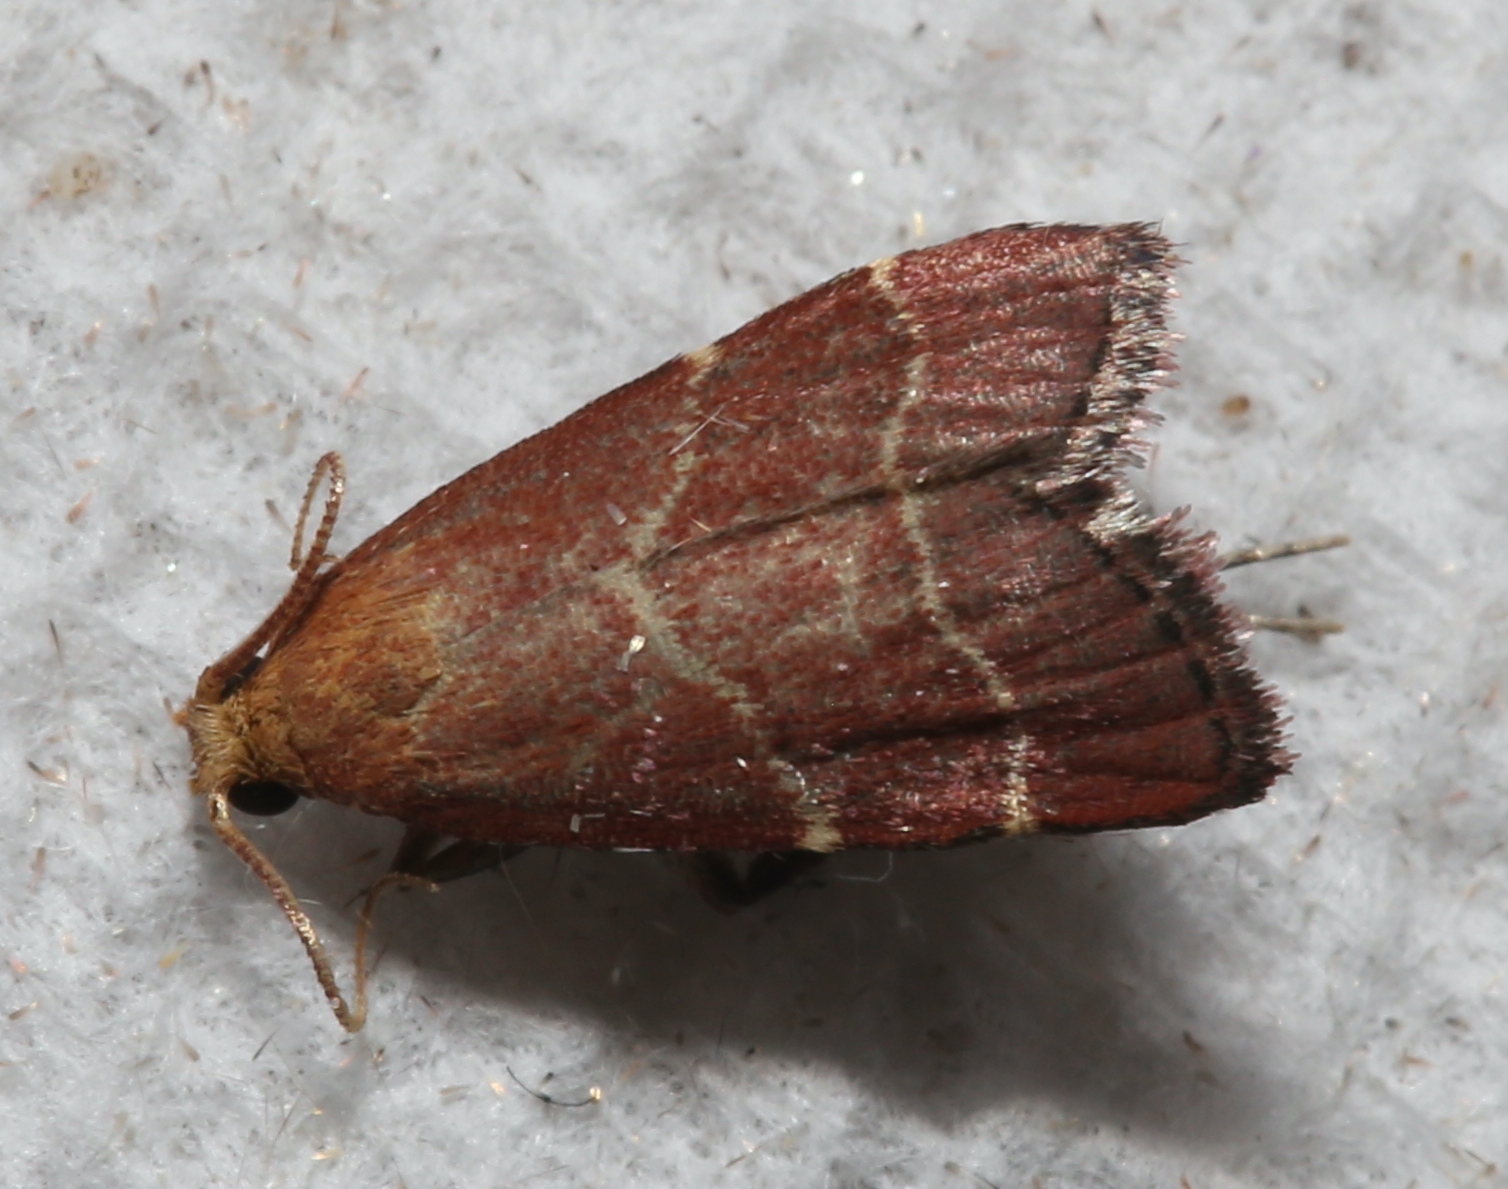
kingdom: Animalia
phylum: Arthropoda
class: Insecta
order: Lepidoptera
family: Pyralidae
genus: Arta
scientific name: Arta statalis
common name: Posturing arta moth
